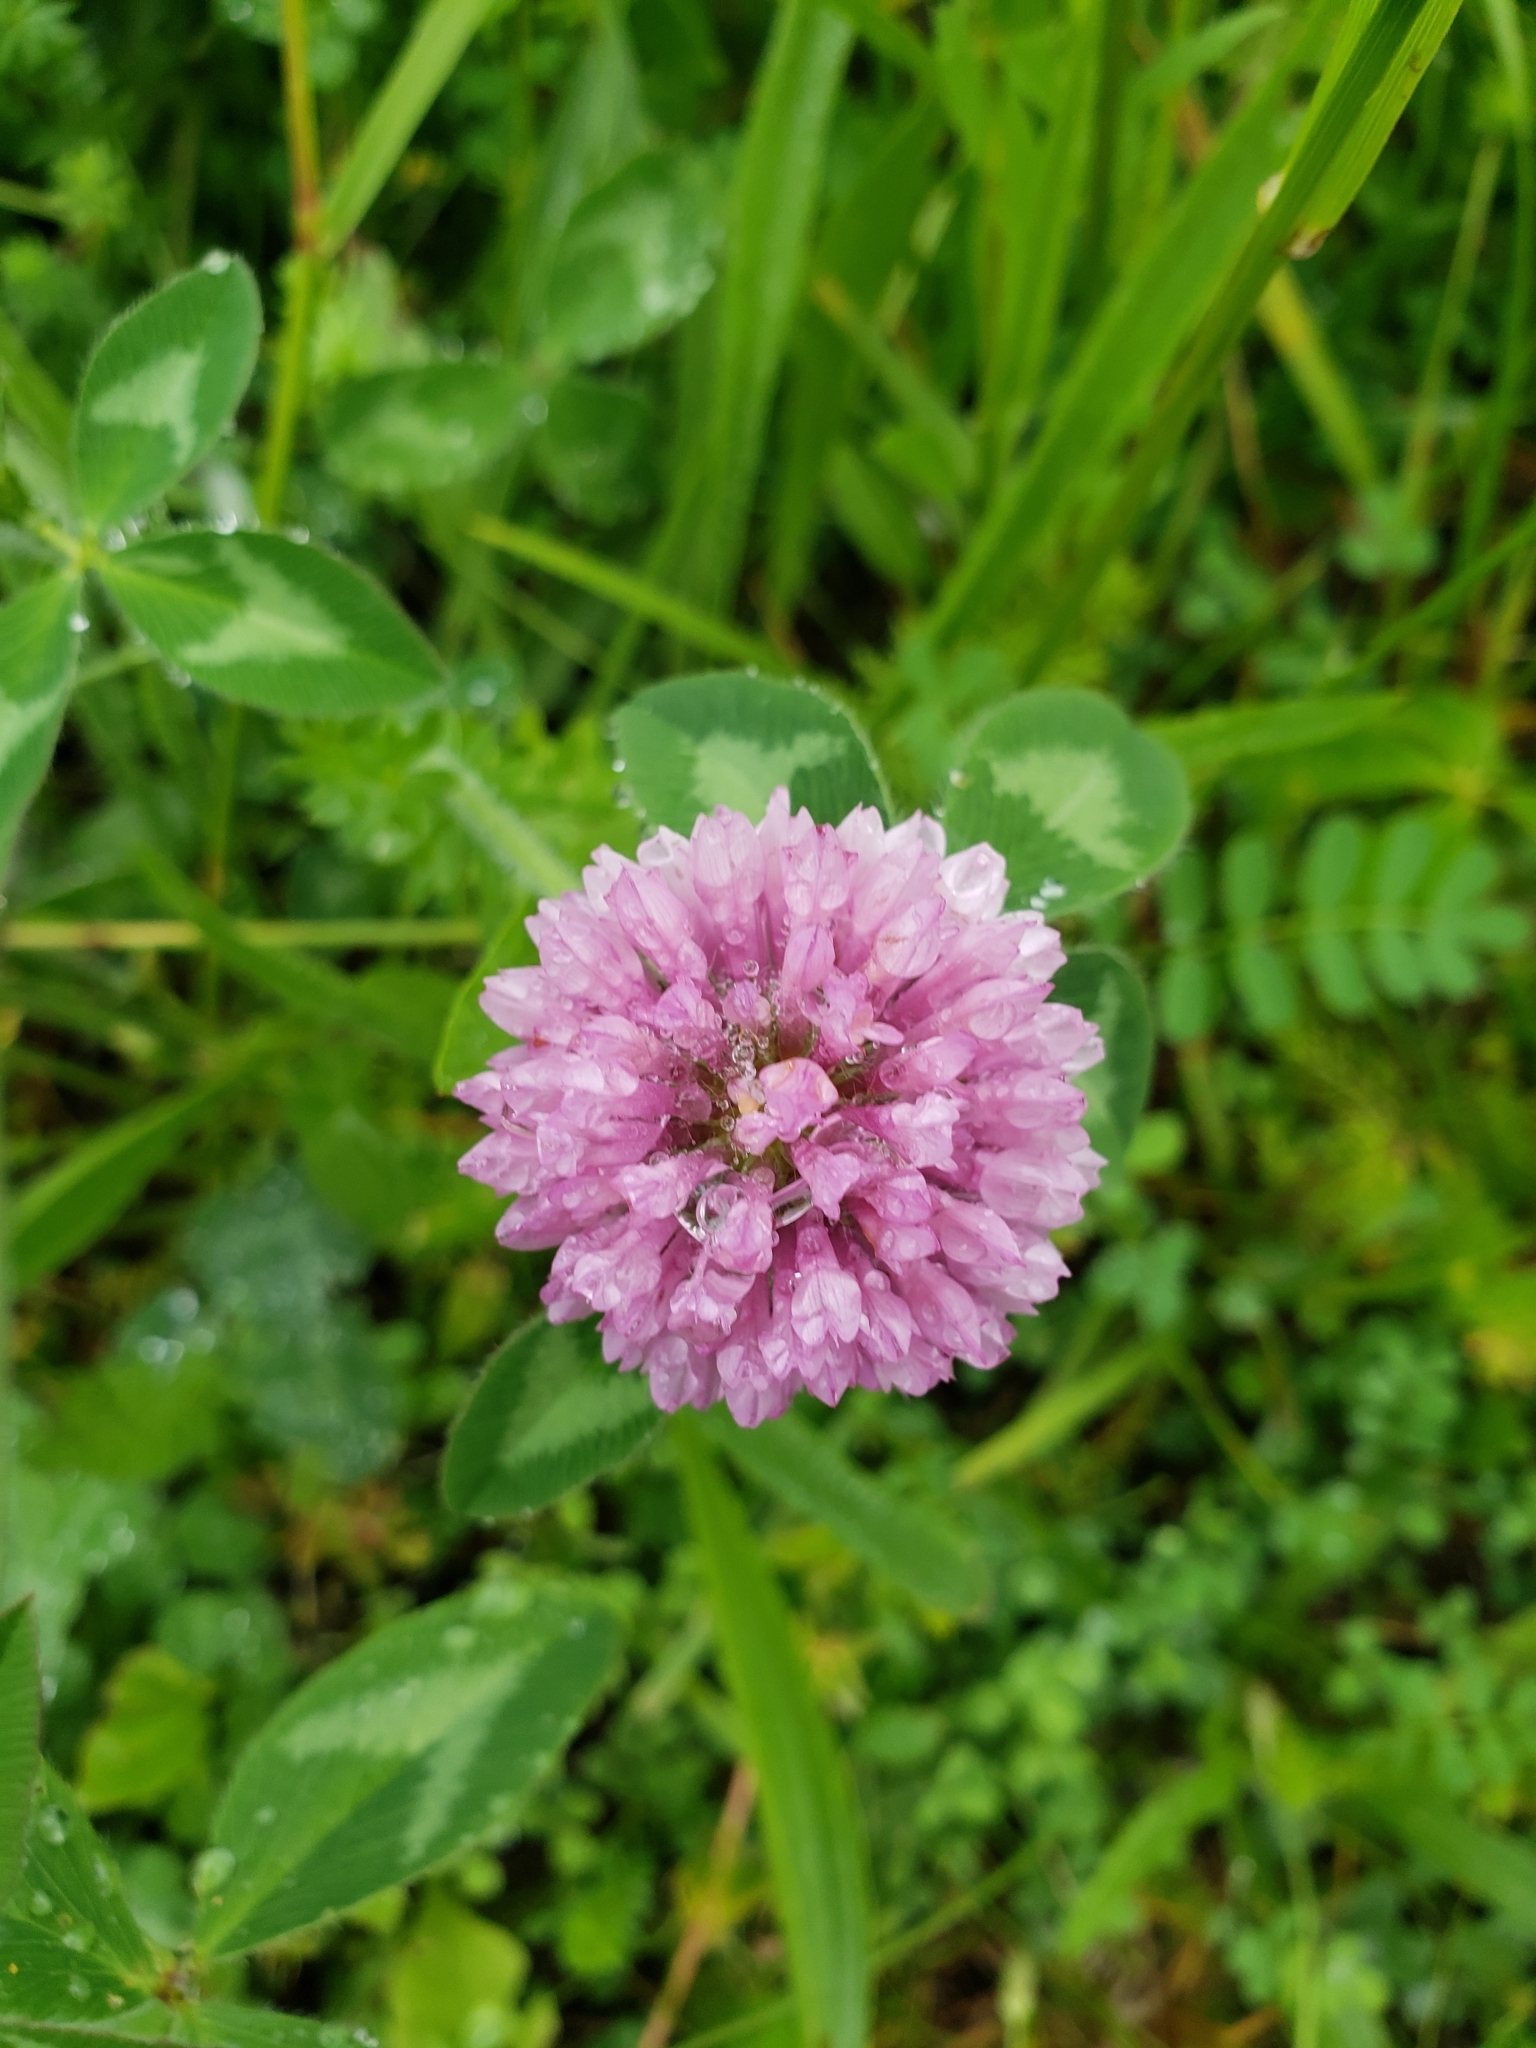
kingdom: Plantae
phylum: Tracheophyta
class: Magnoliopsida
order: Fabales
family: Fabaceae
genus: Trifolium
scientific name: Trifolium pratense
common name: Red clover
